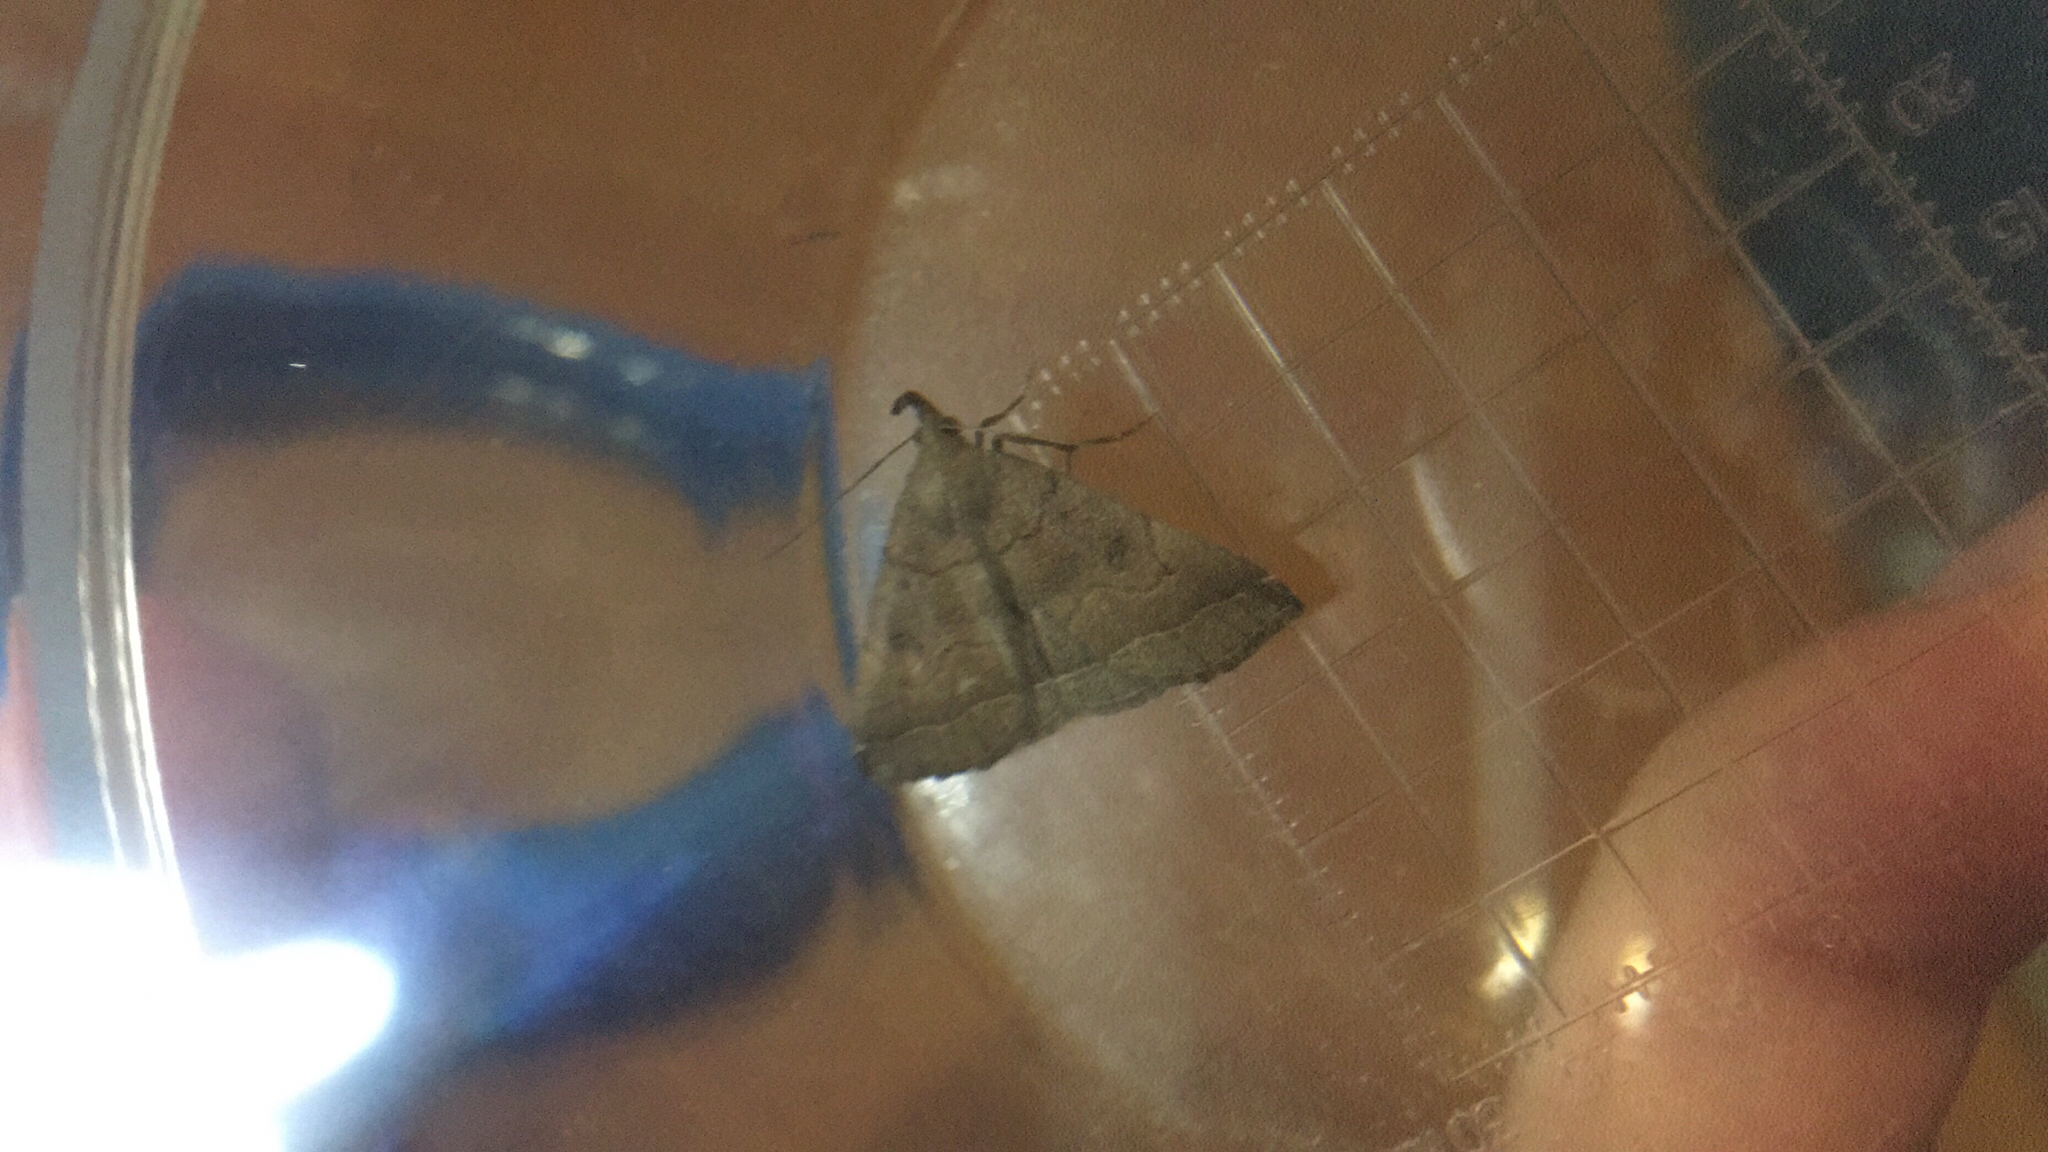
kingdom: Animalia
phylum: Arthropoda
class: Insecta
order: Lepidoptera
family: Erebidae
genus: Hypena
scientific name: Hypena proboscidalis
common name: Snout
